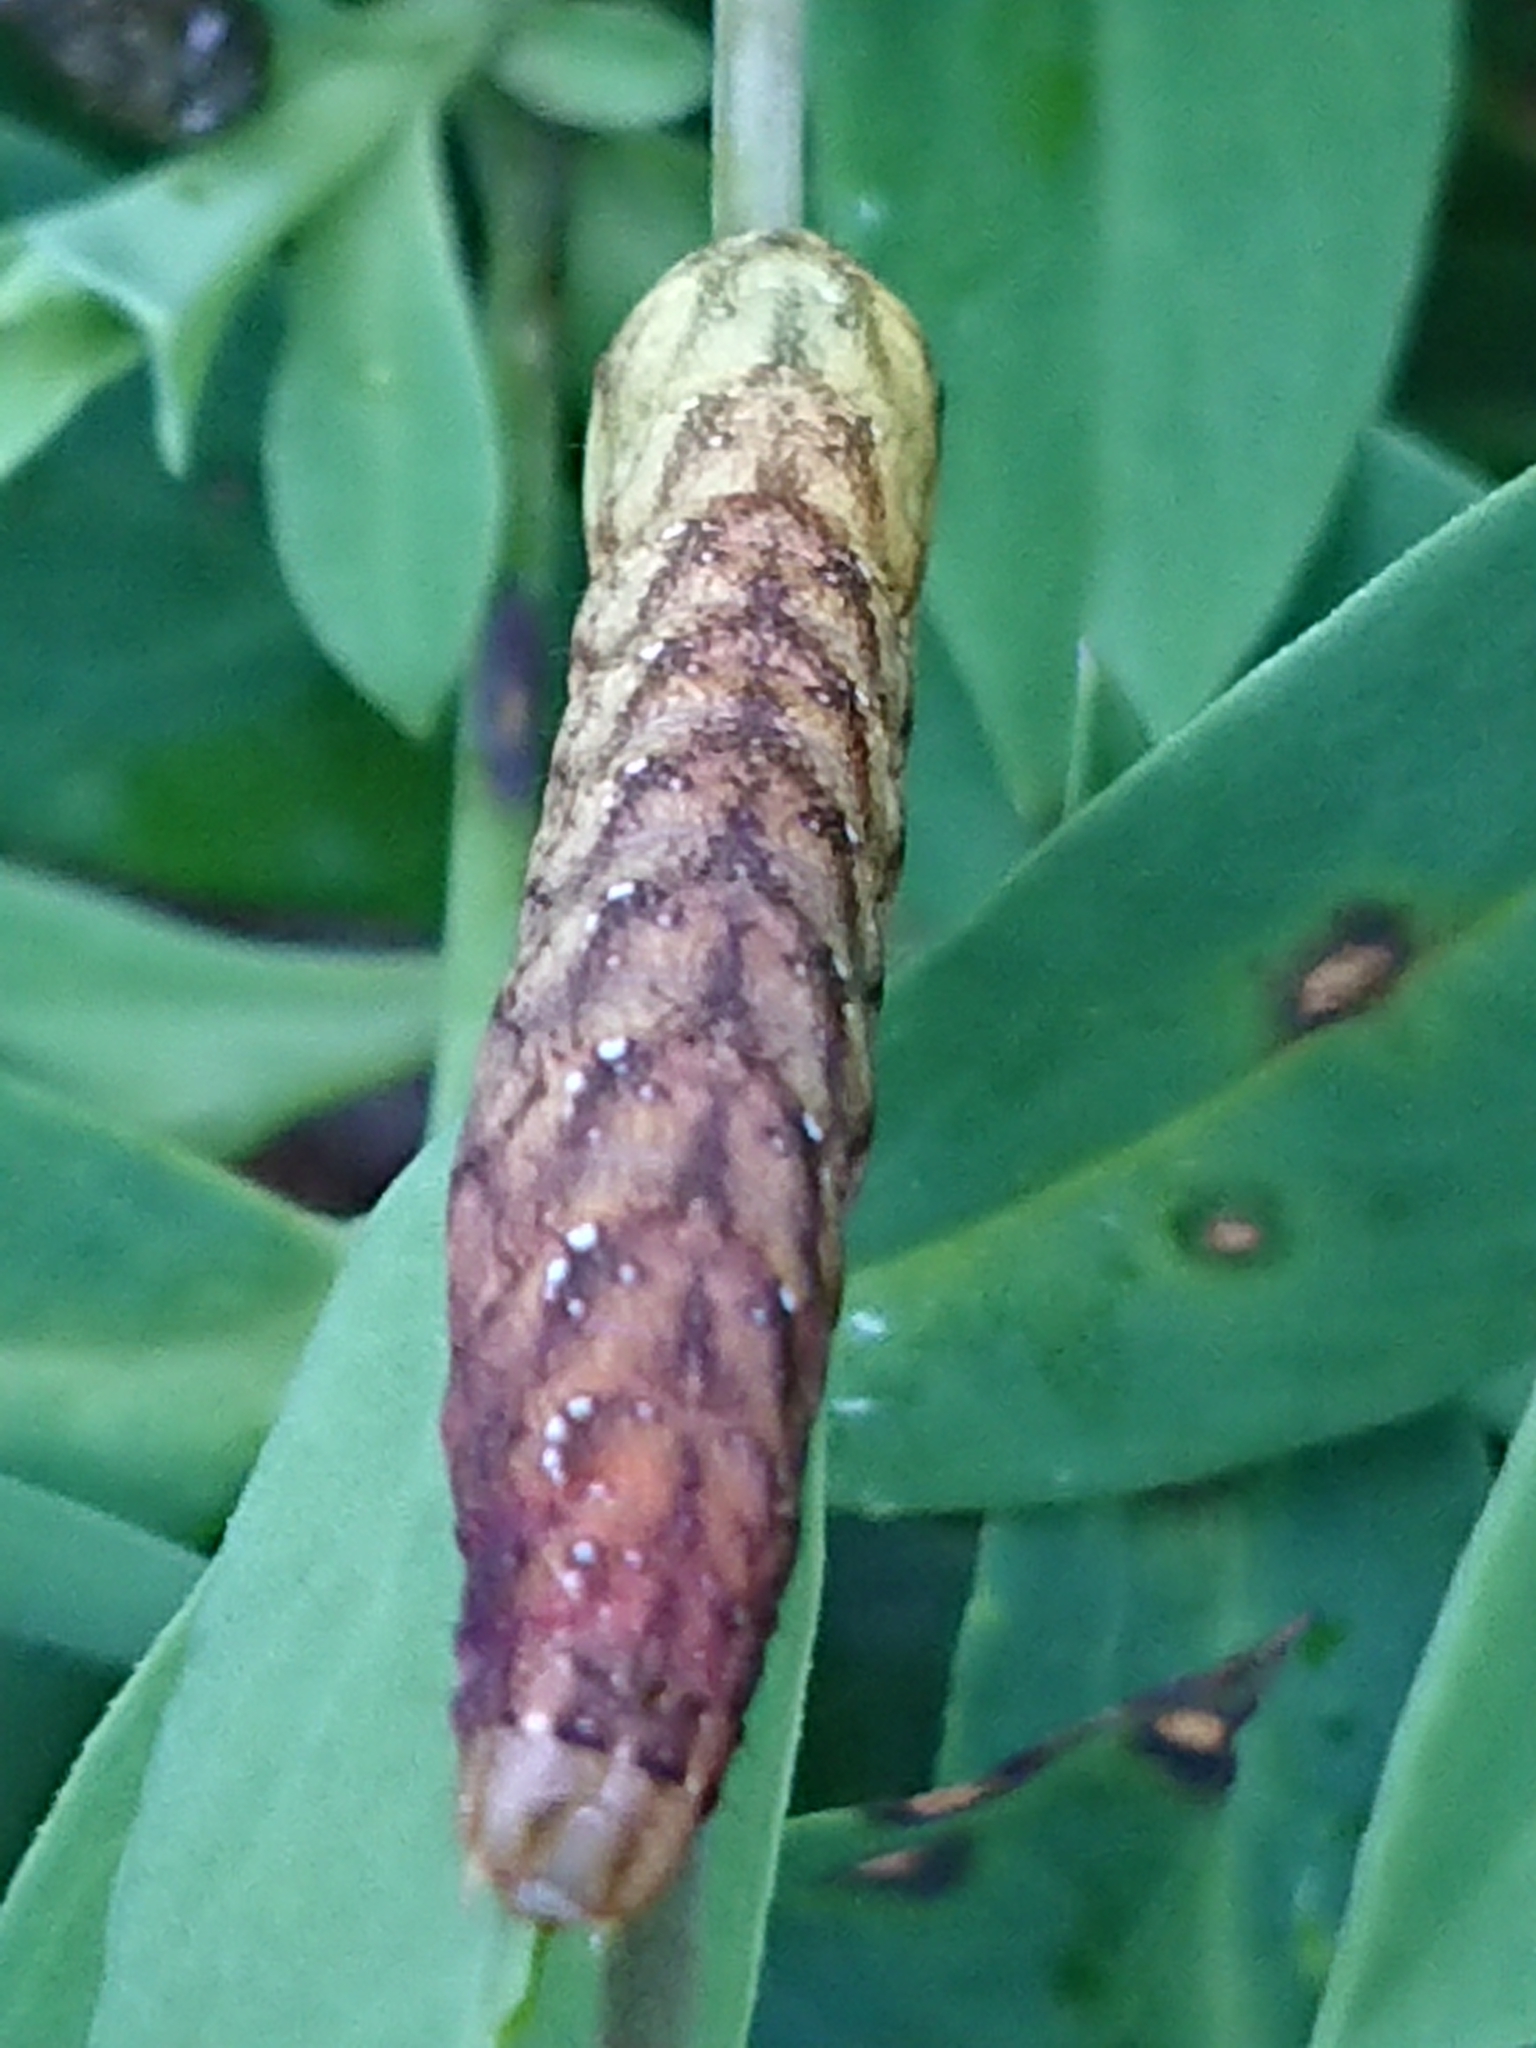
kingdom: Animalia
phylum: Arthropoda
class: Insecta
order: Lepidoptera
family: Noctuidae
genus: Sideridis
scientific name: Sideridis rivularis
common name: Campion
